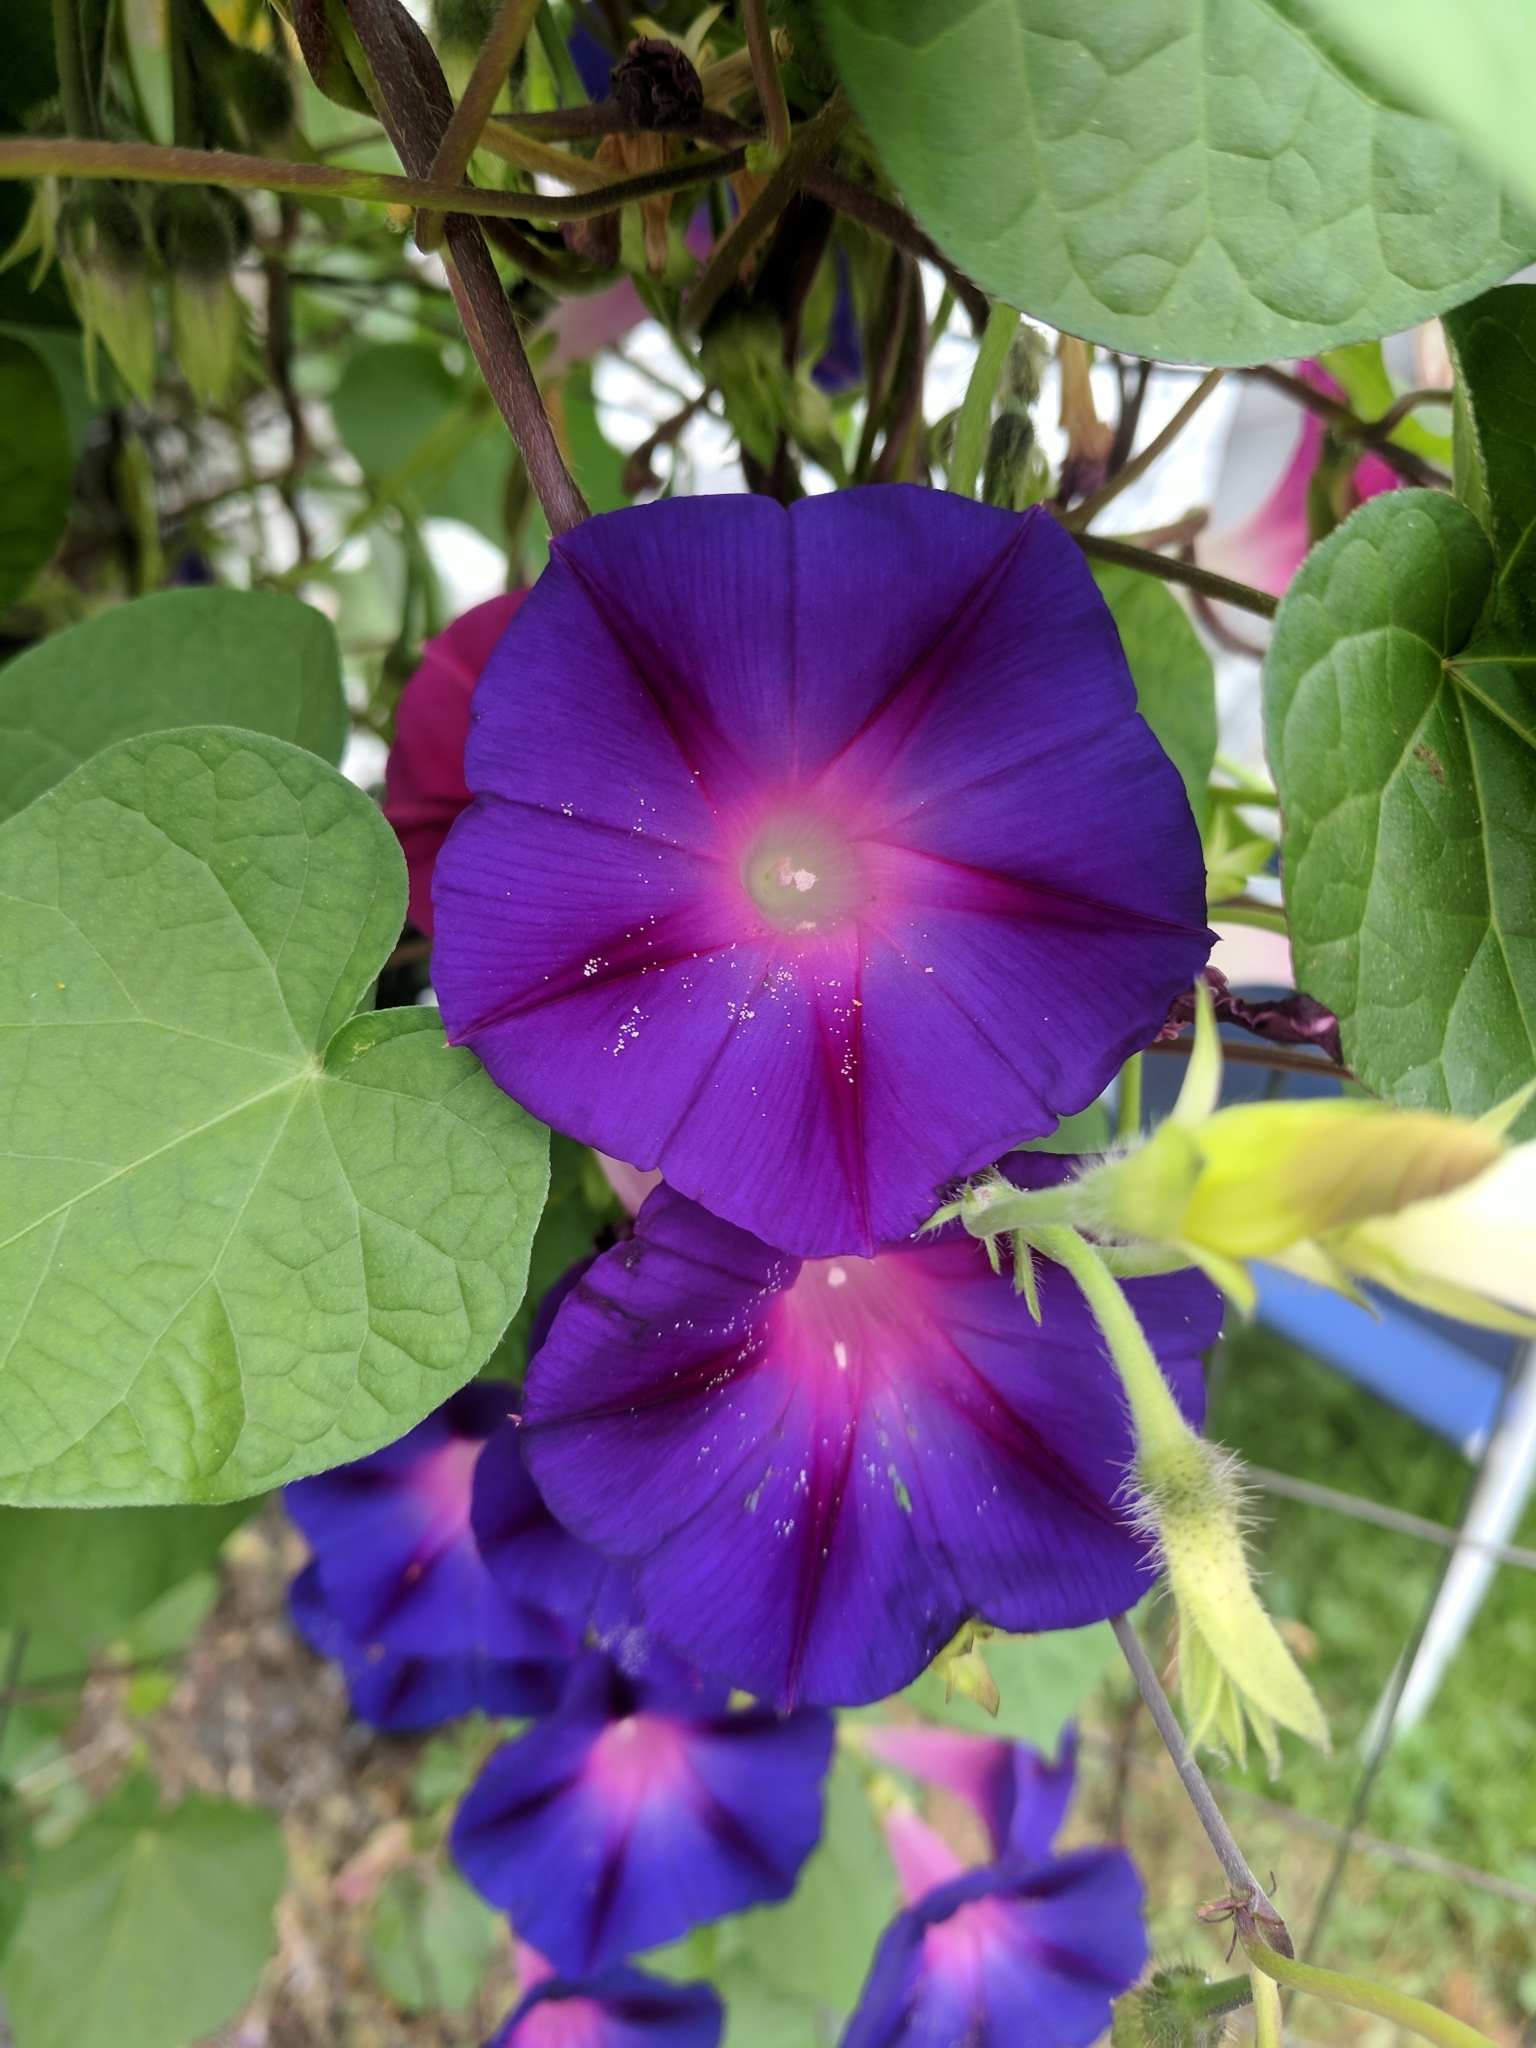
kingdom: Plantae
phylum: Tracheophyta
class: Magnoliopsida
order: Solanales
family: Convolvulaceae
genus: Ipomoea
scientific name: Ipomoea purpurea
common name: Common morning-glory
